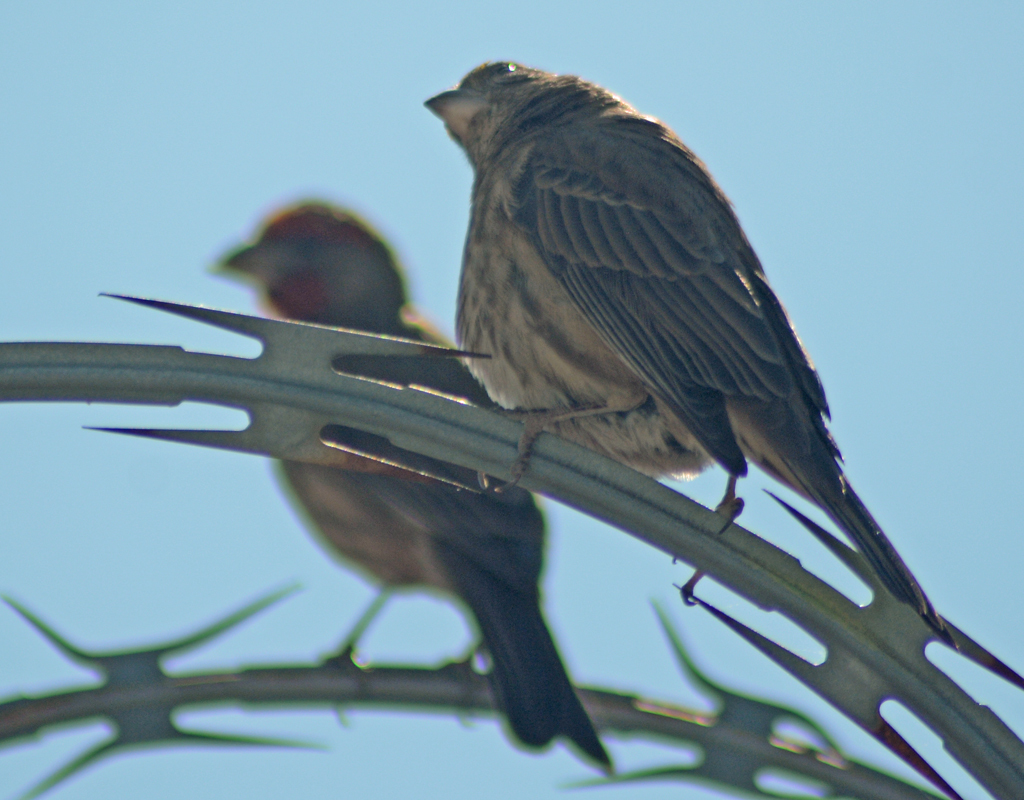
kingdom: Animalia
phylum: Chordata
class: Aves
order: Passeriformes
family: Fringillidae
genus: Haemorhous
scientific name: Haemorhous mexicanus
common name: House finch
